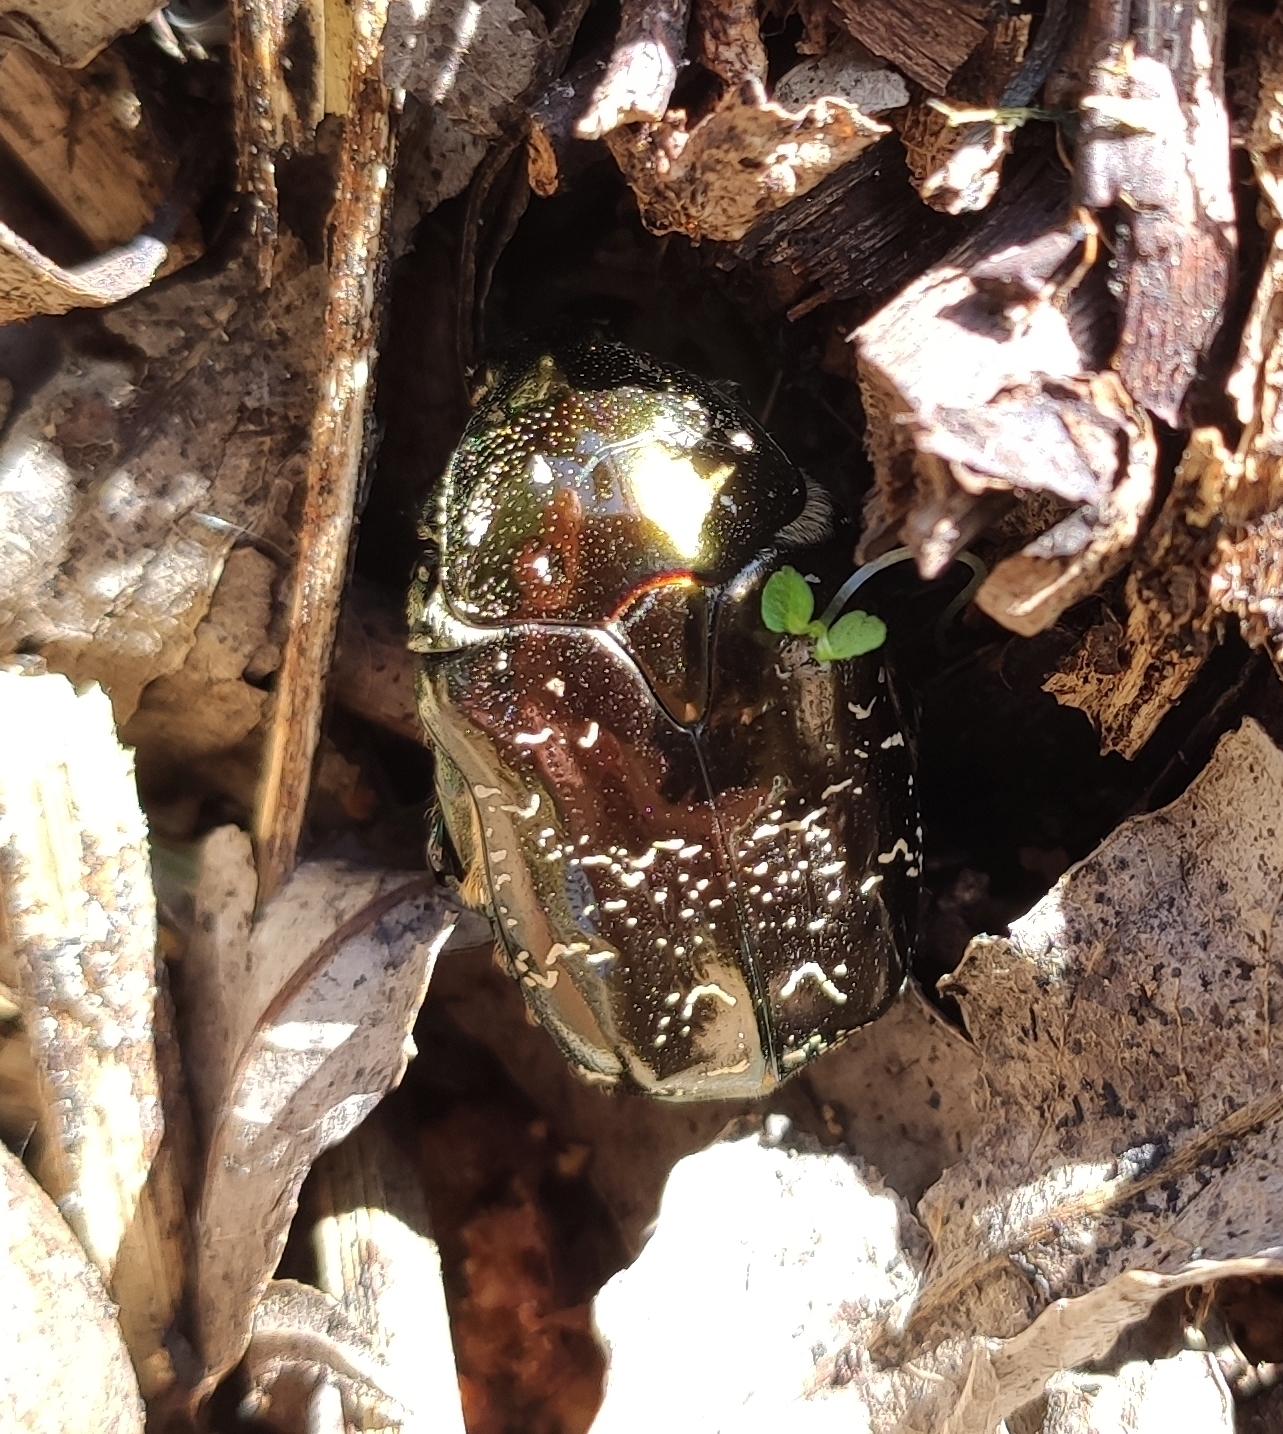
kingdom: Animalia
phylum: Arthropoda
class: Insecta
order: Coleoptera
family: Scarabaeidae
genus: Protaetia
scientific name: Protaetia marmorata
